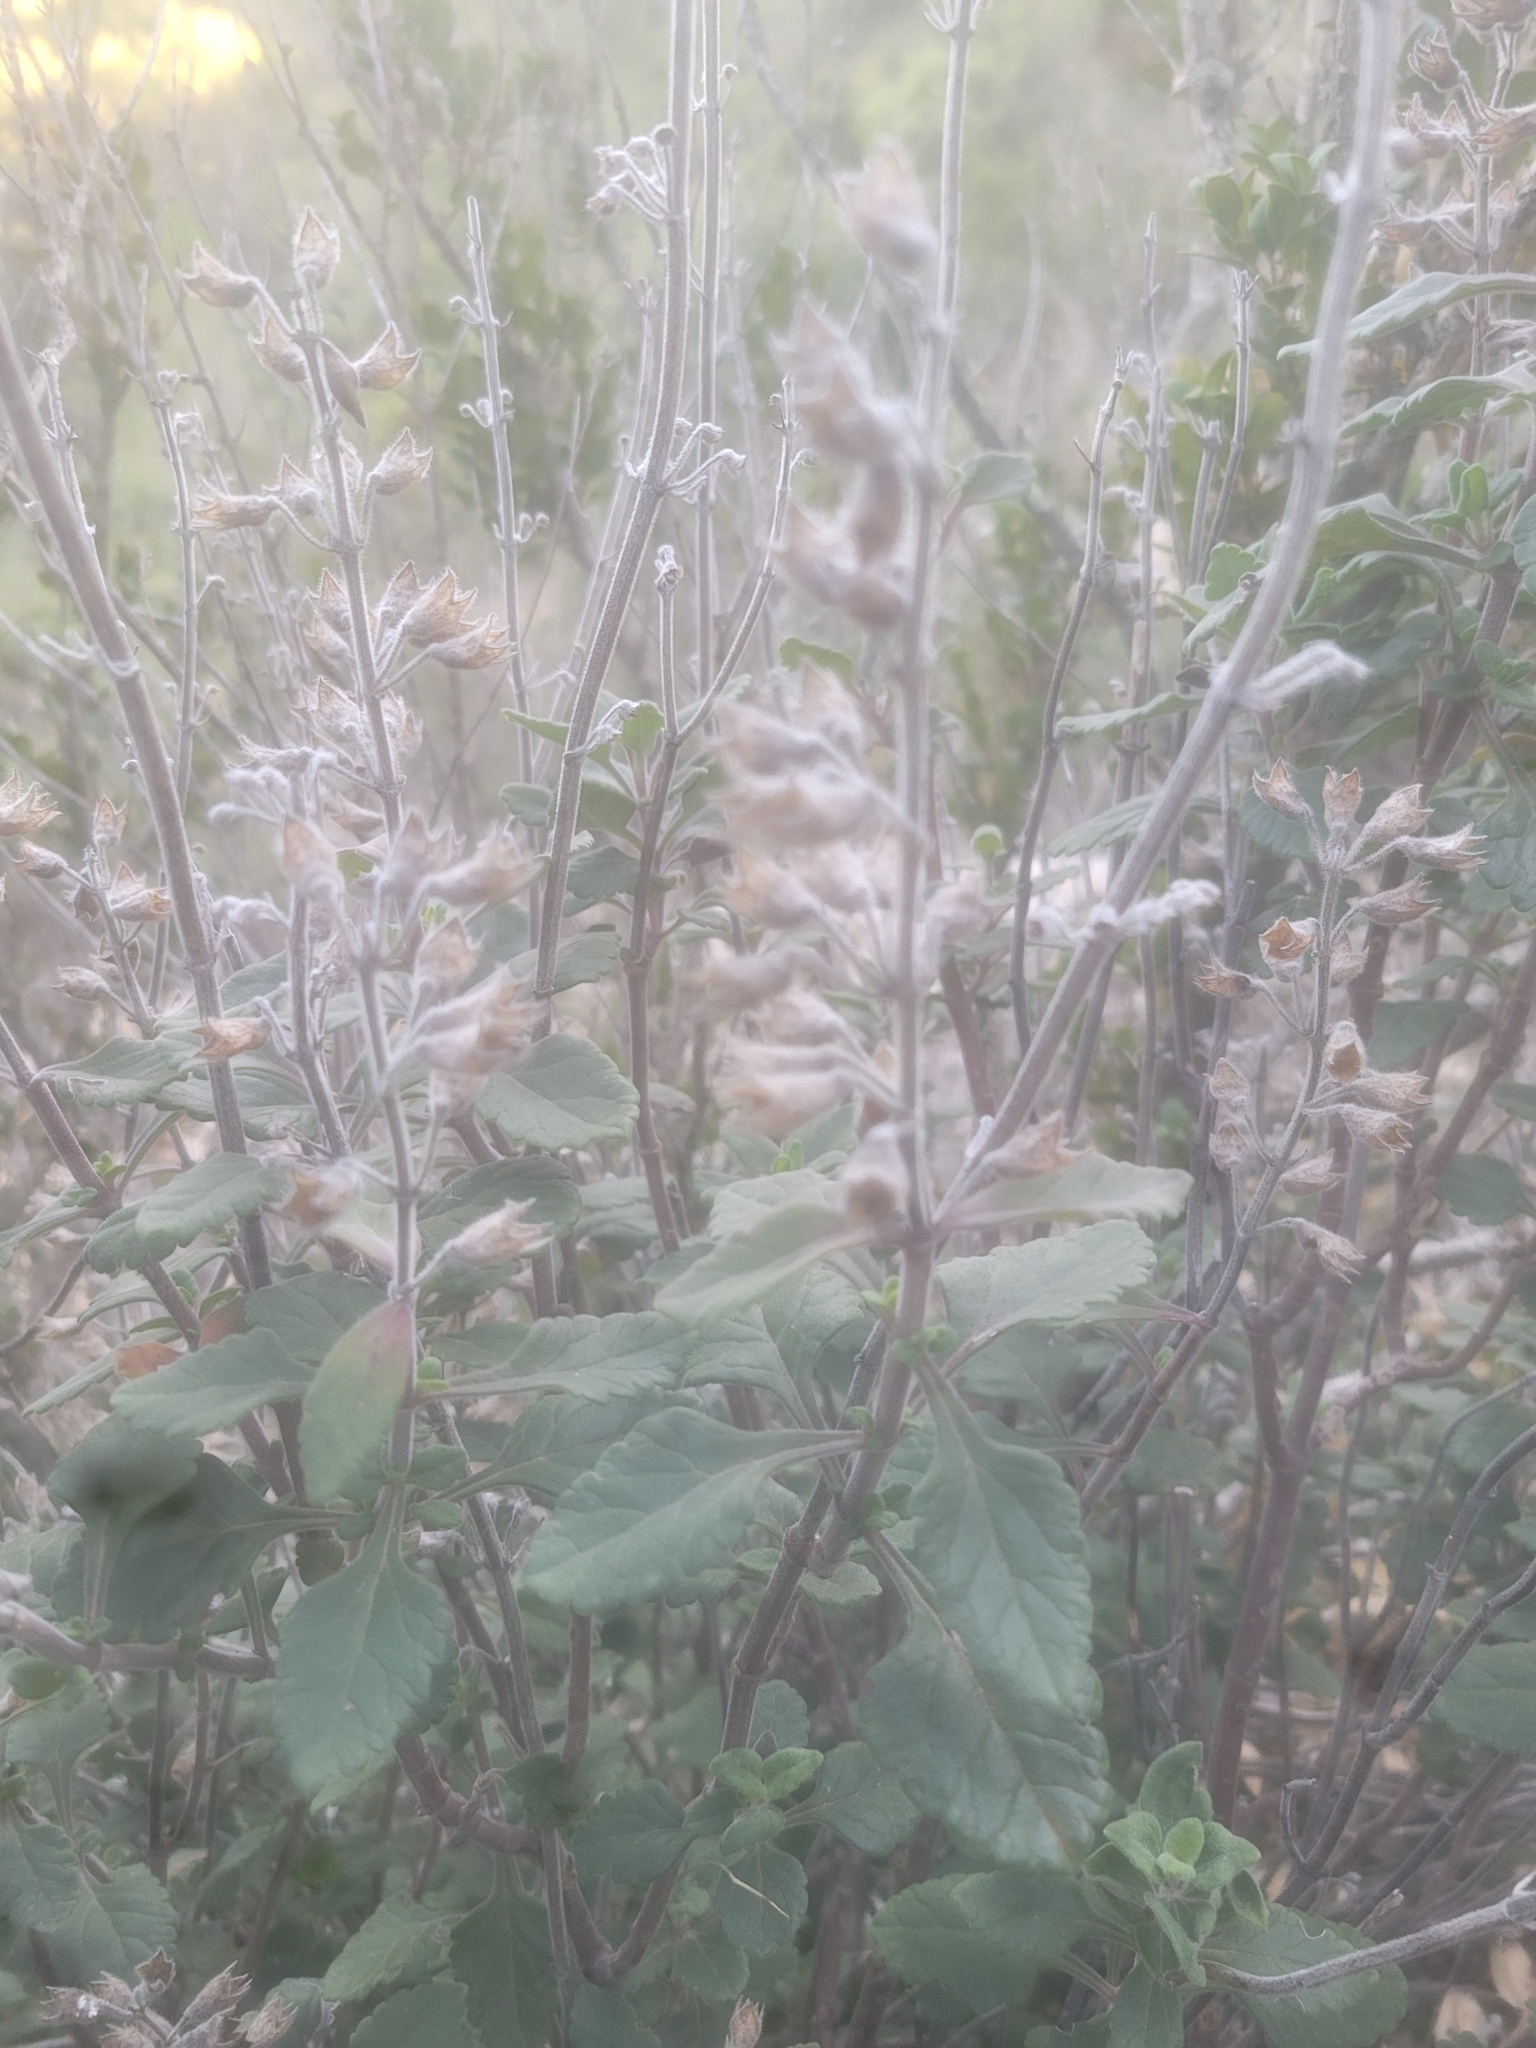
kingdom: Plantae
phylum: Tracheophyta
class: Magnoliopsida
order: Lamiales
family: Lamiaceae
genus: Teucrium
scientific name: Teucrium flavum
